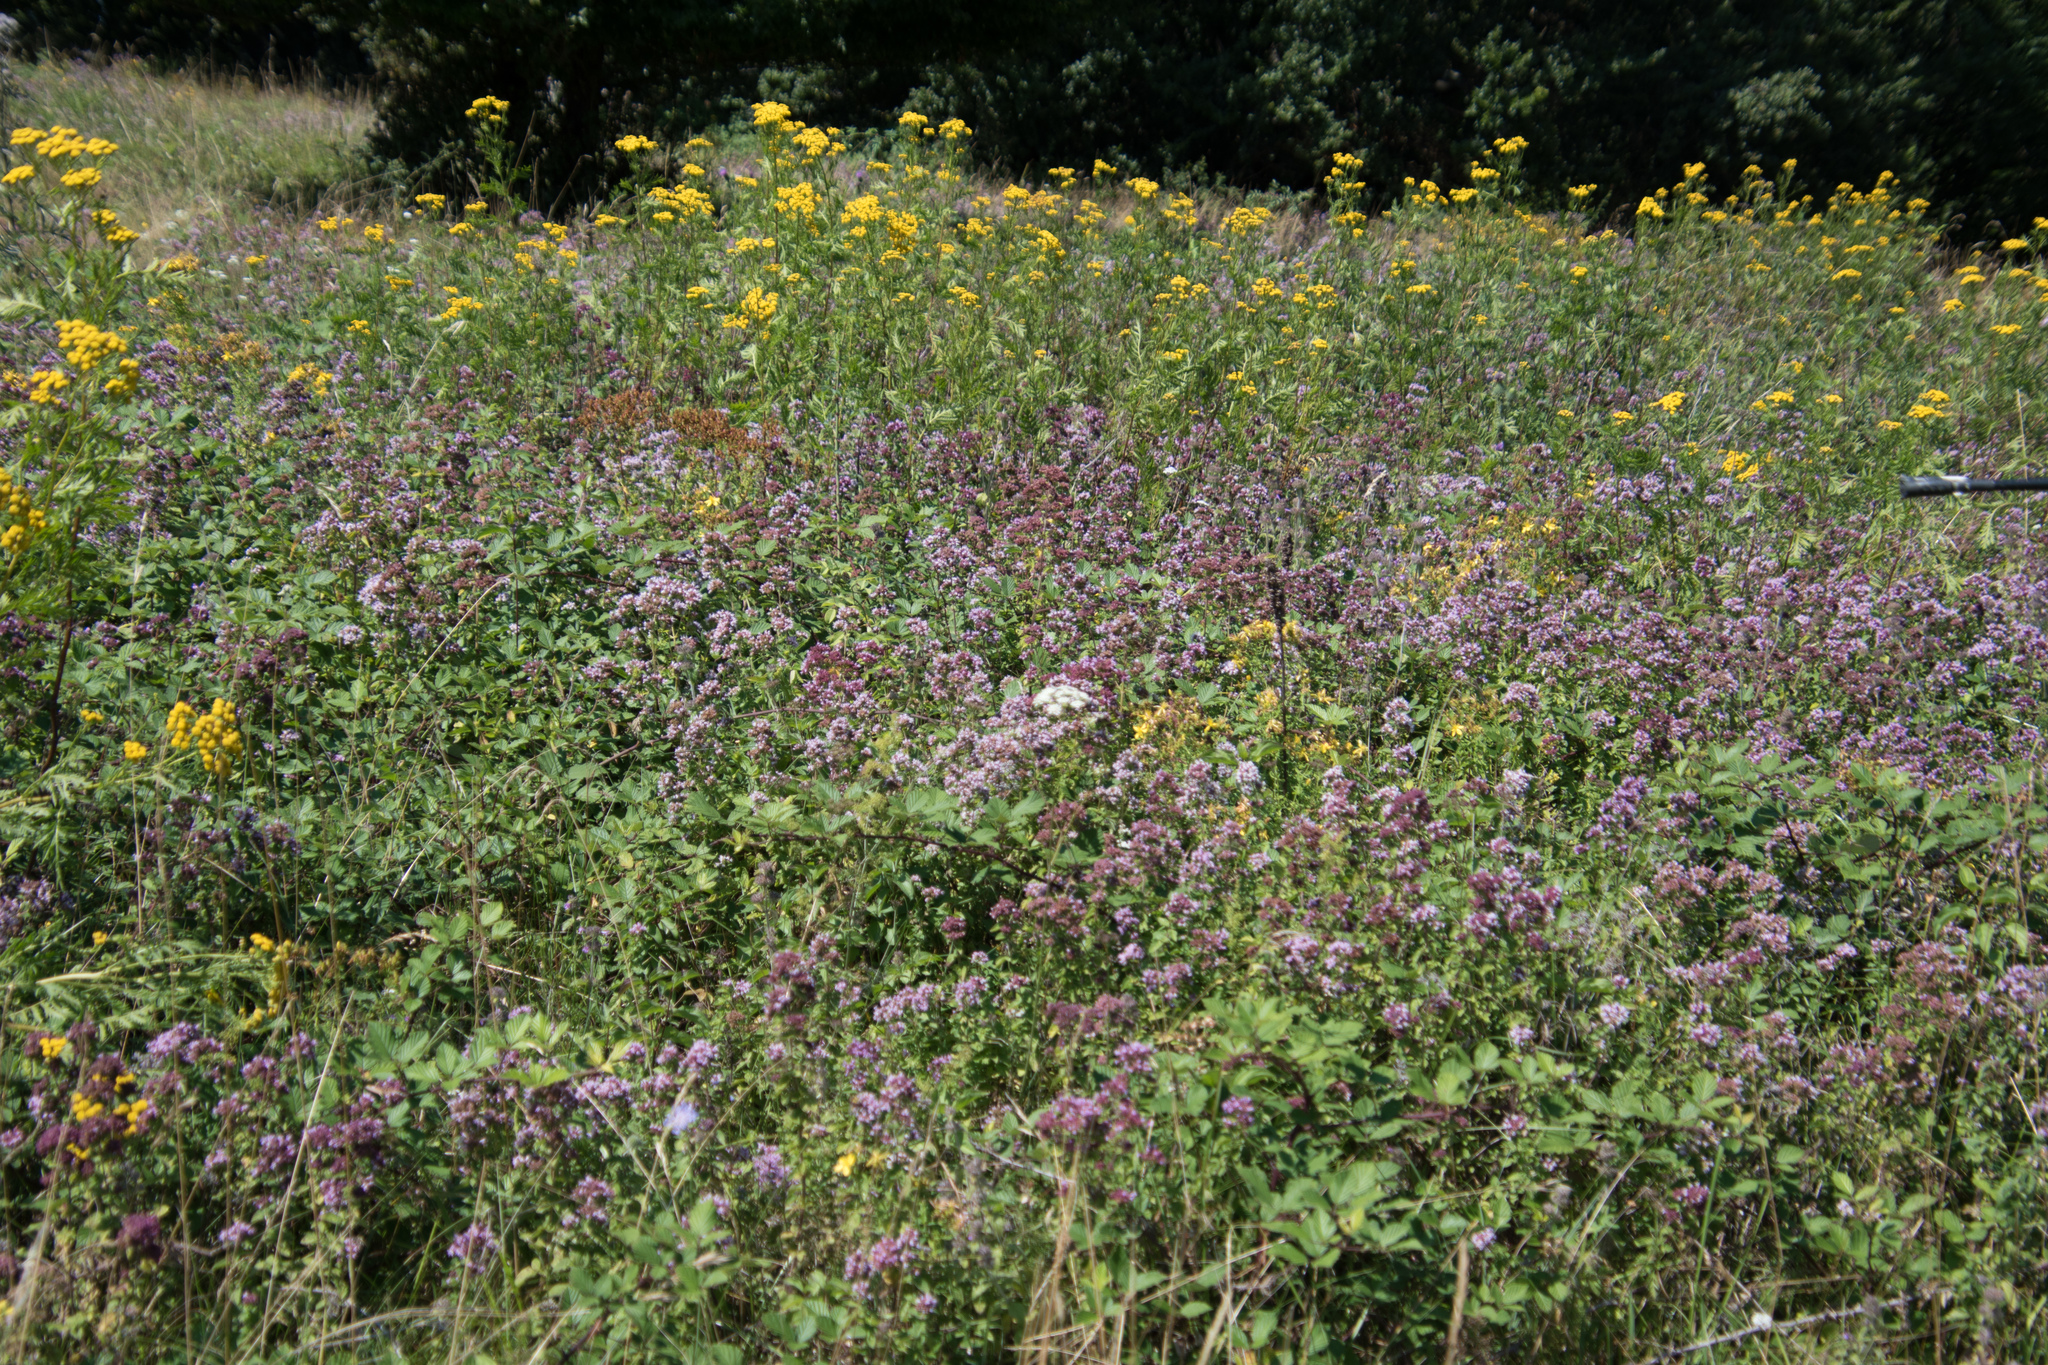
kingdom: Plantae
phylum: Tracheophyta
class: Magnoliopsida
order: Lamiales
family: Lamiaceae
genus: Origanum
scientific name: Origanum vulgare
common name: Wild marjoram
